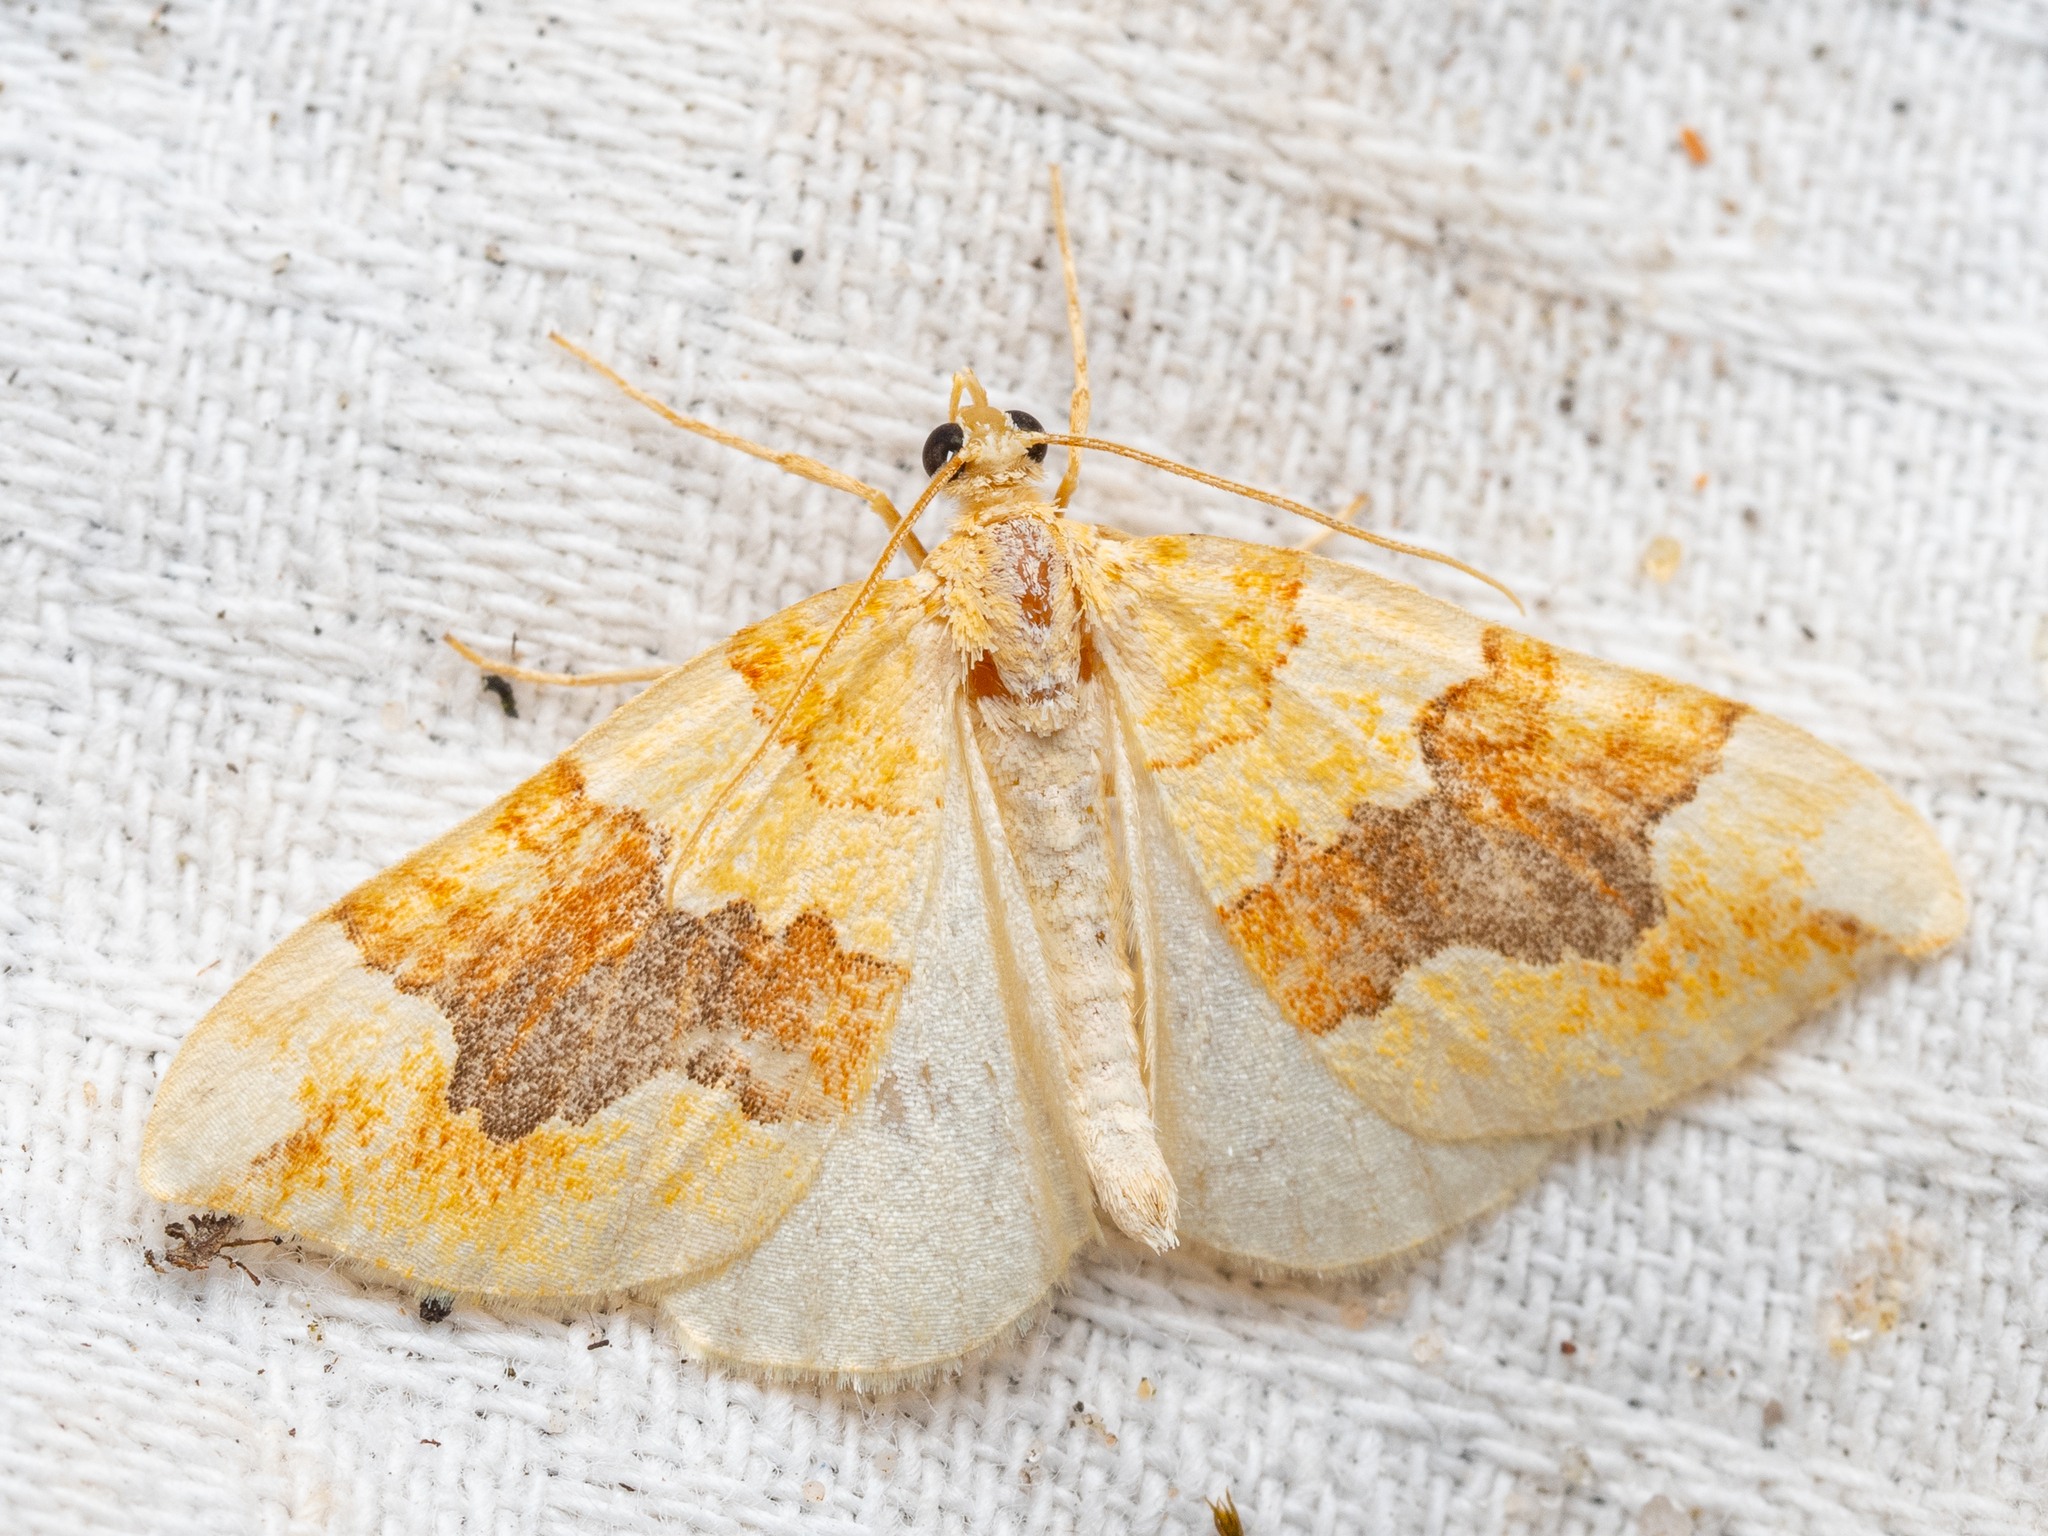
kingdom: Animalia
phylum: Arthropoda
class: Insecta
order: Lepidoptera
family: Geometridae
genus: Cidaria
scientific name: Cidaria fulvata
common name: Barred yellow
